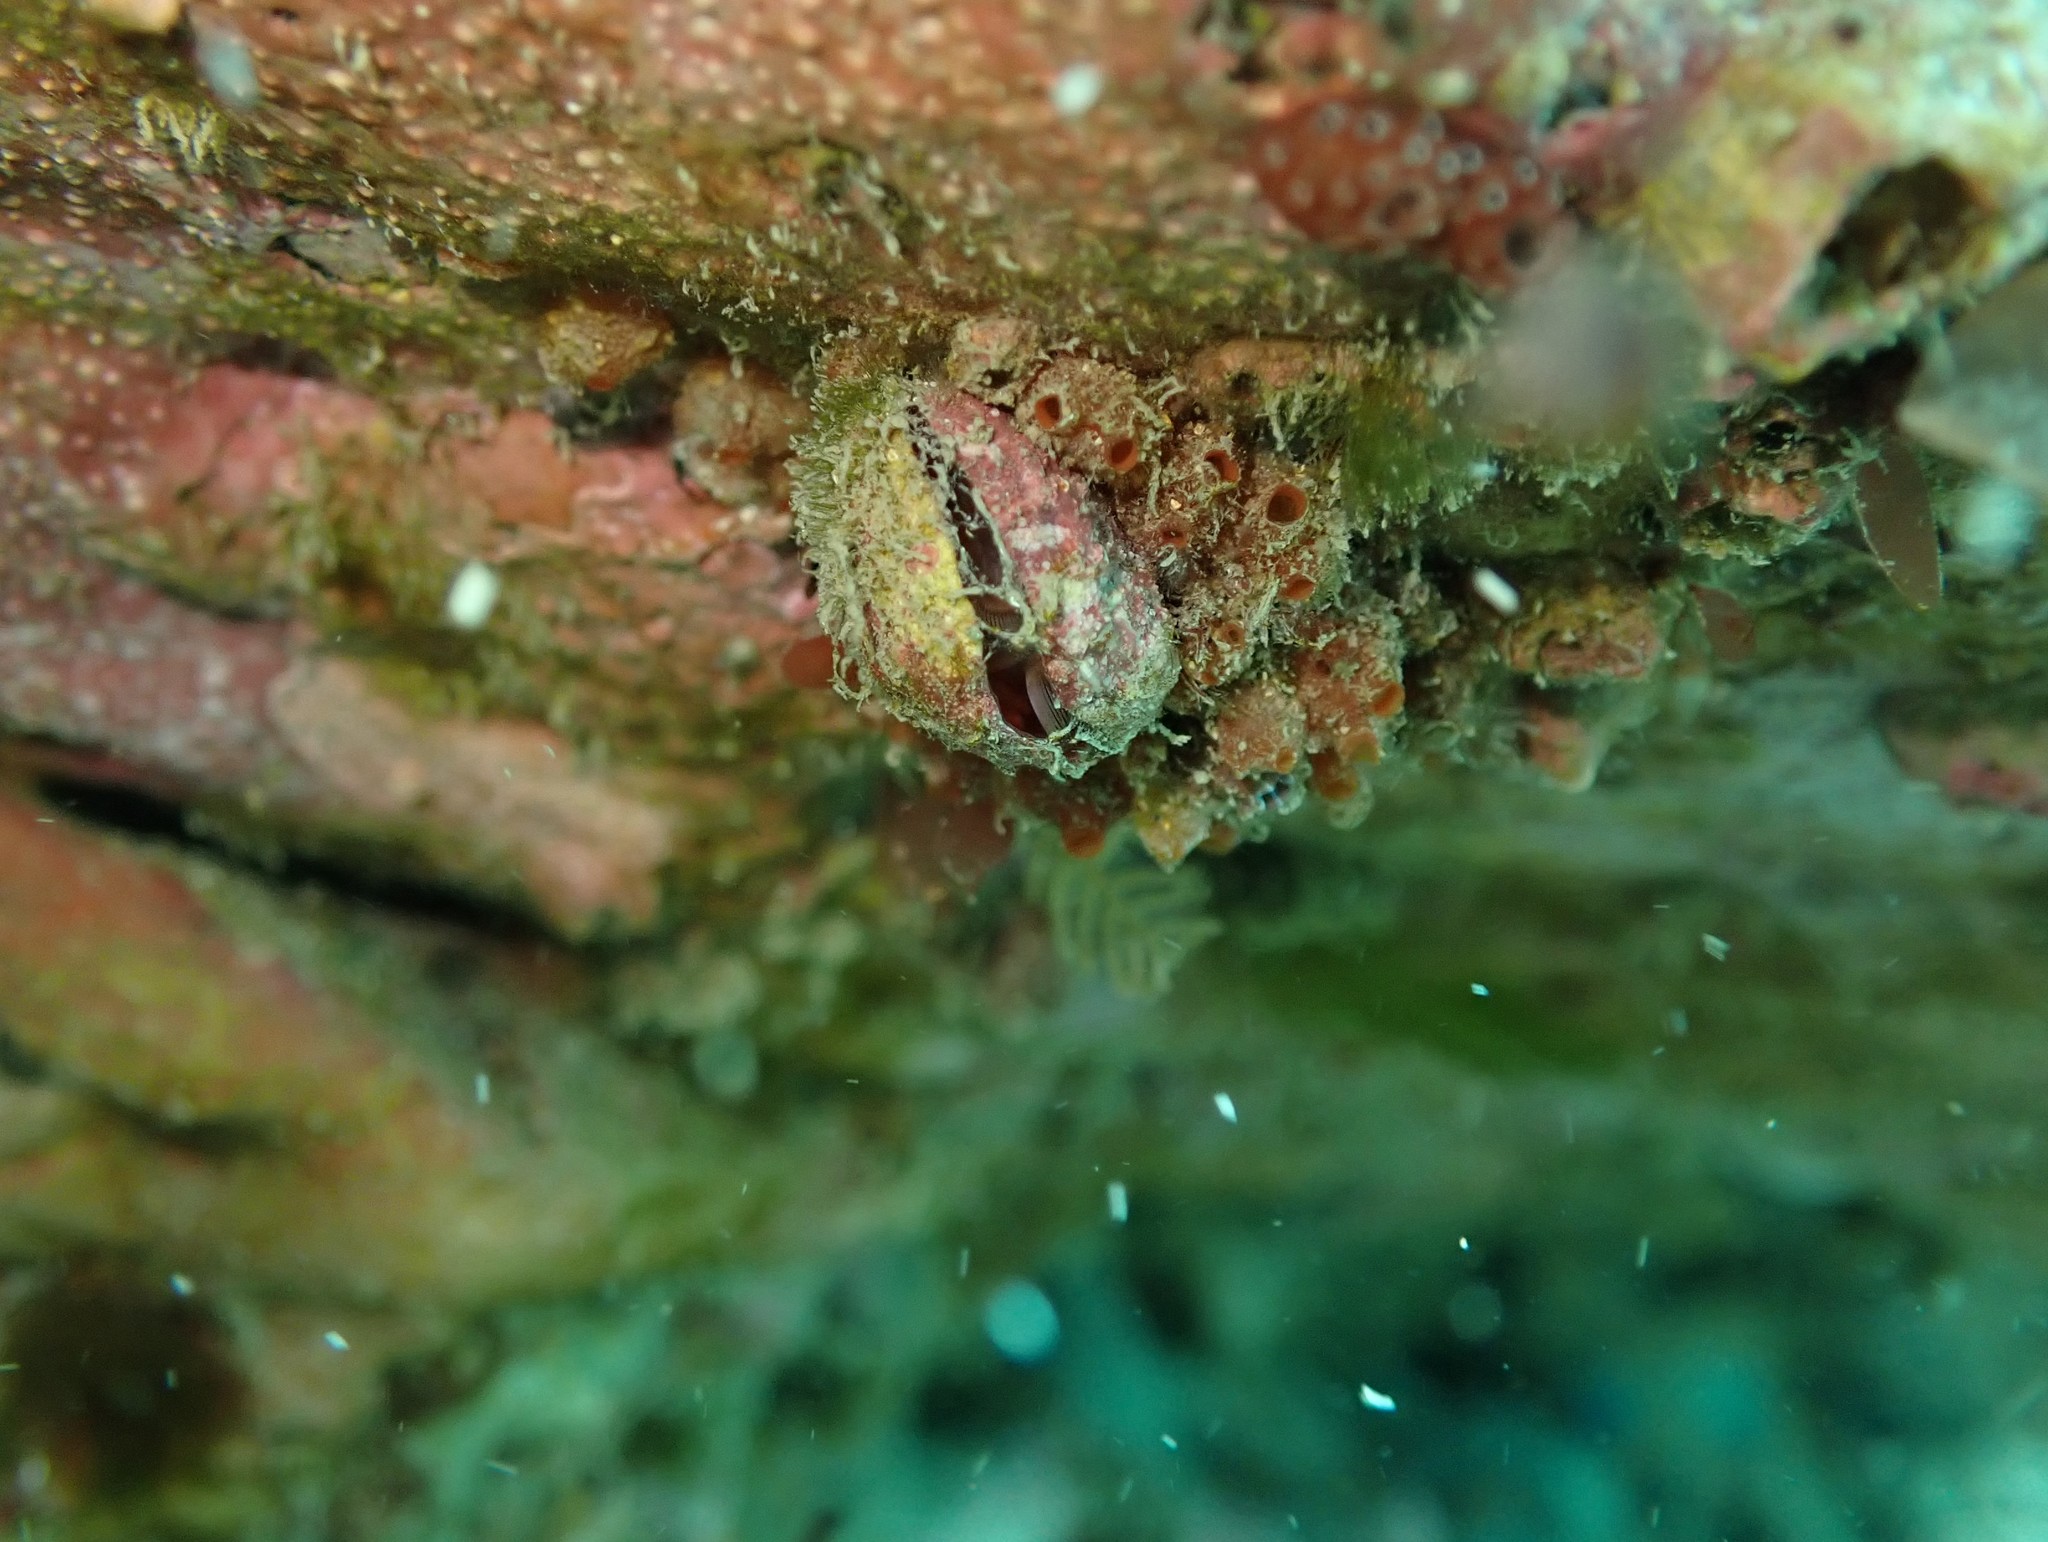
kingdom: Animalia
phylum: Brachiopoda
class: Rhynchonellata
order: Terebratulida
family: Terebratellidae
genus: Calloria
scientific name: Calloria inconspicua
